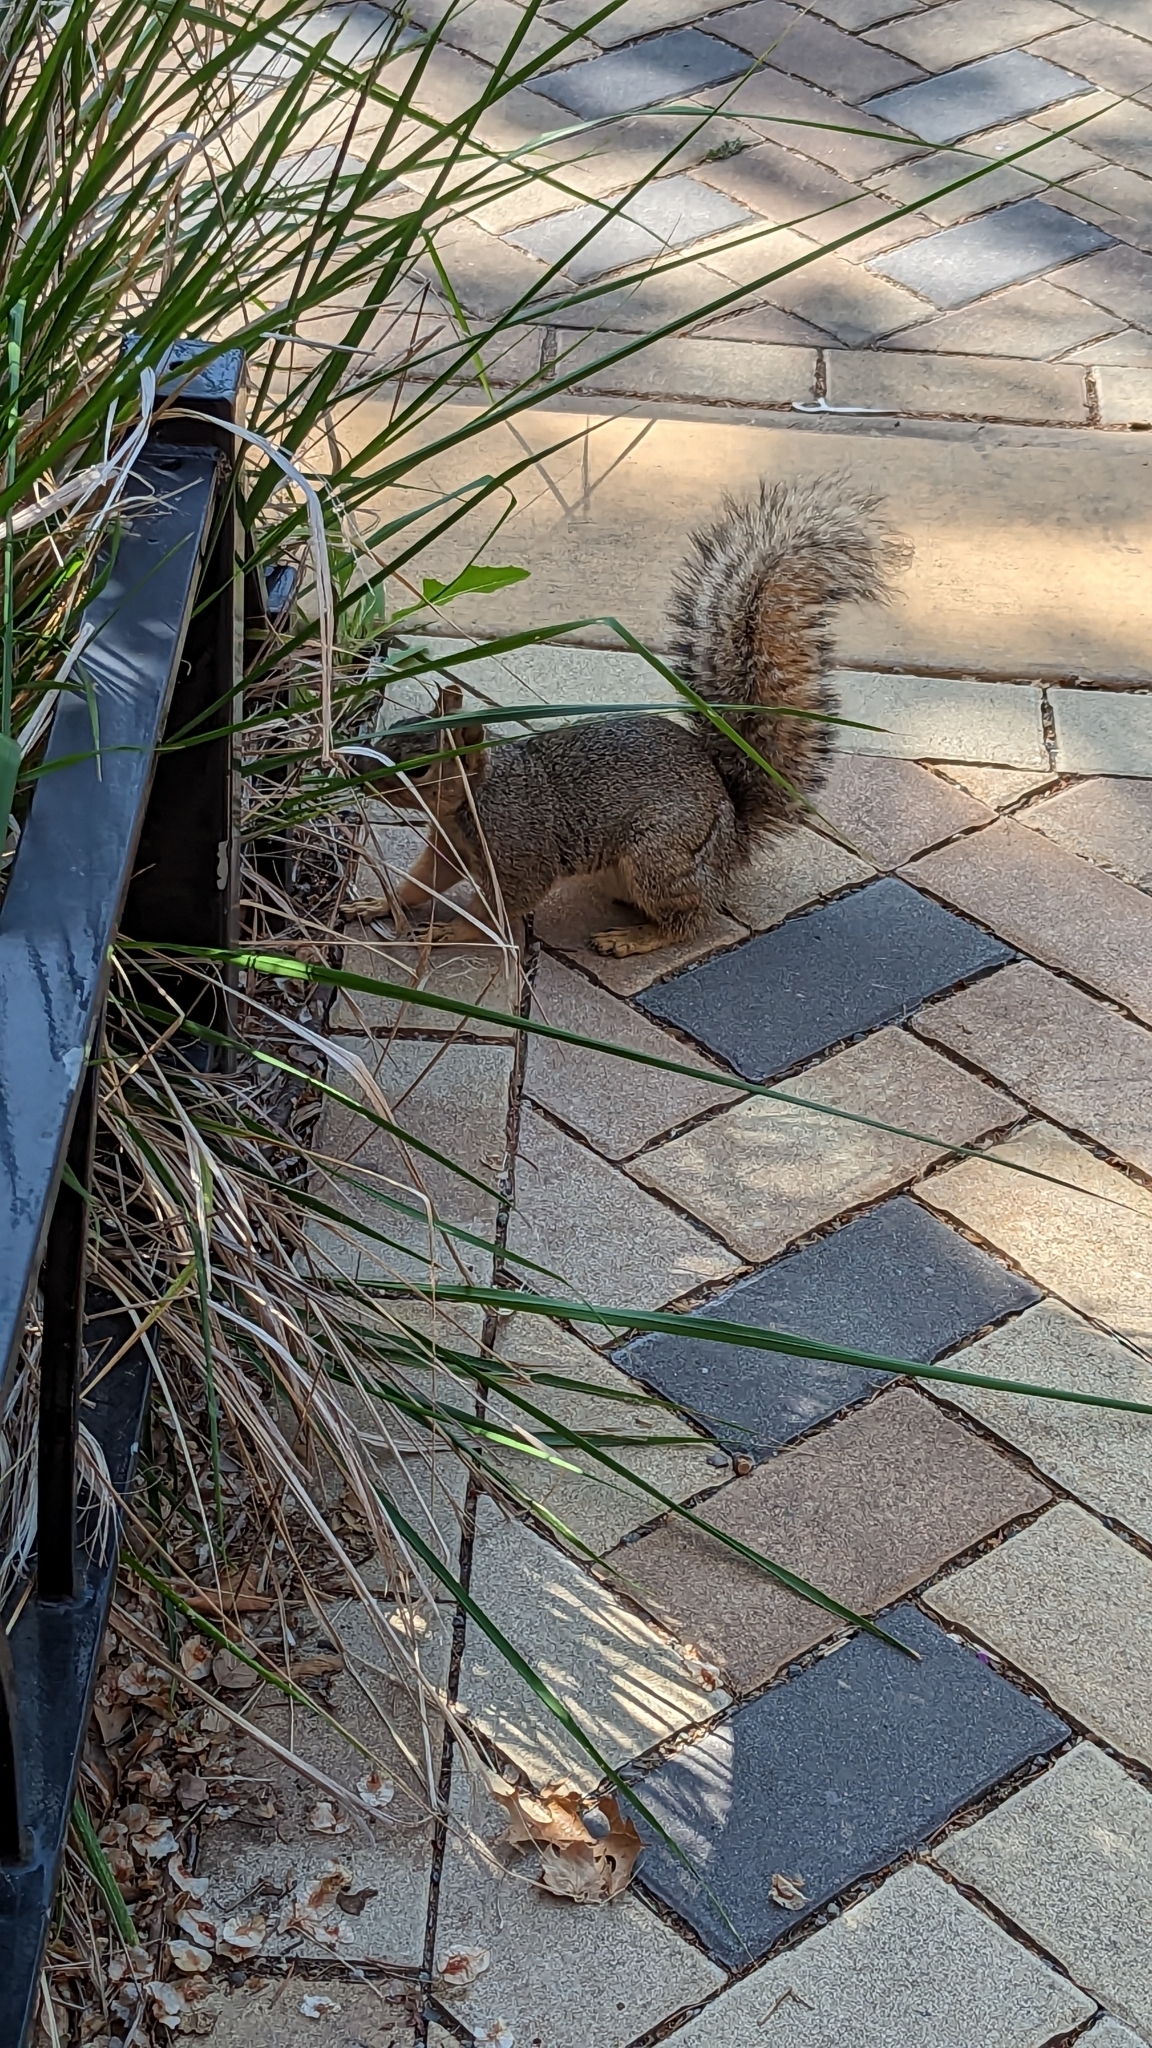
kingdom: Animalia
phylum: Chordata
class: Mammalia
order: Rodentia
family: Sciuridae
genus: Sciurus
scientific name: Sciurus niger
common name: Fox squirrel
